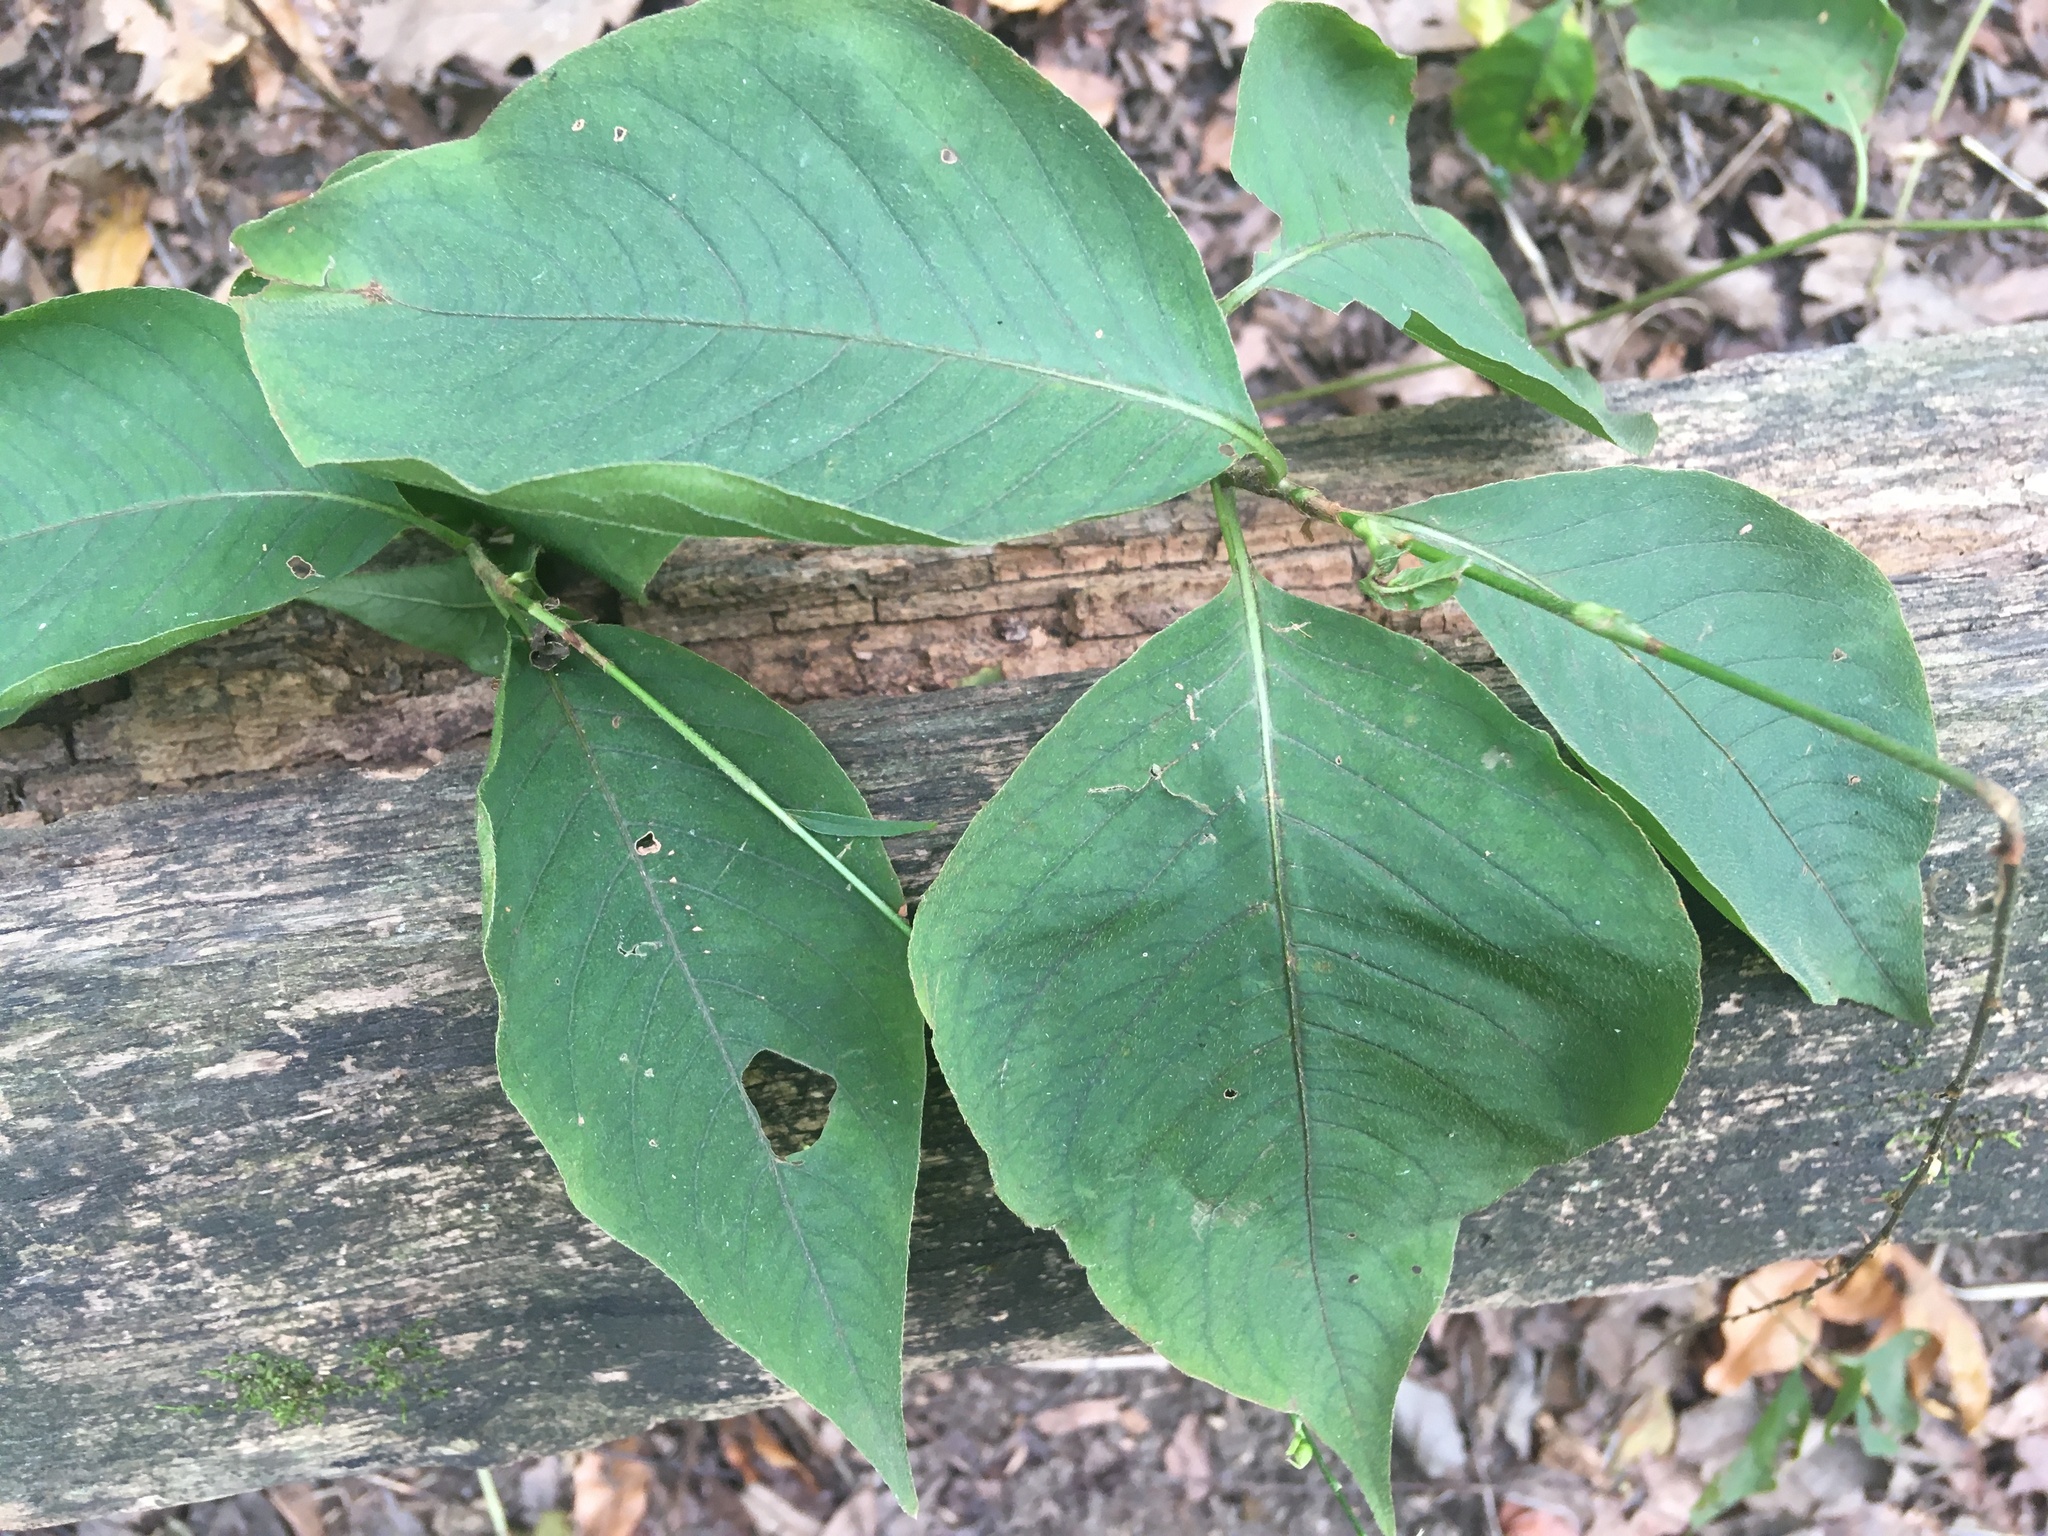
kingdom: Plantae
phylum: Tracheophyta
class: Magnoliopsida
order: Caryophyllales
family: Polygonaceae
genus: Persicaria
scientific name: Persicaria virginiana
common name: Jumpseed
